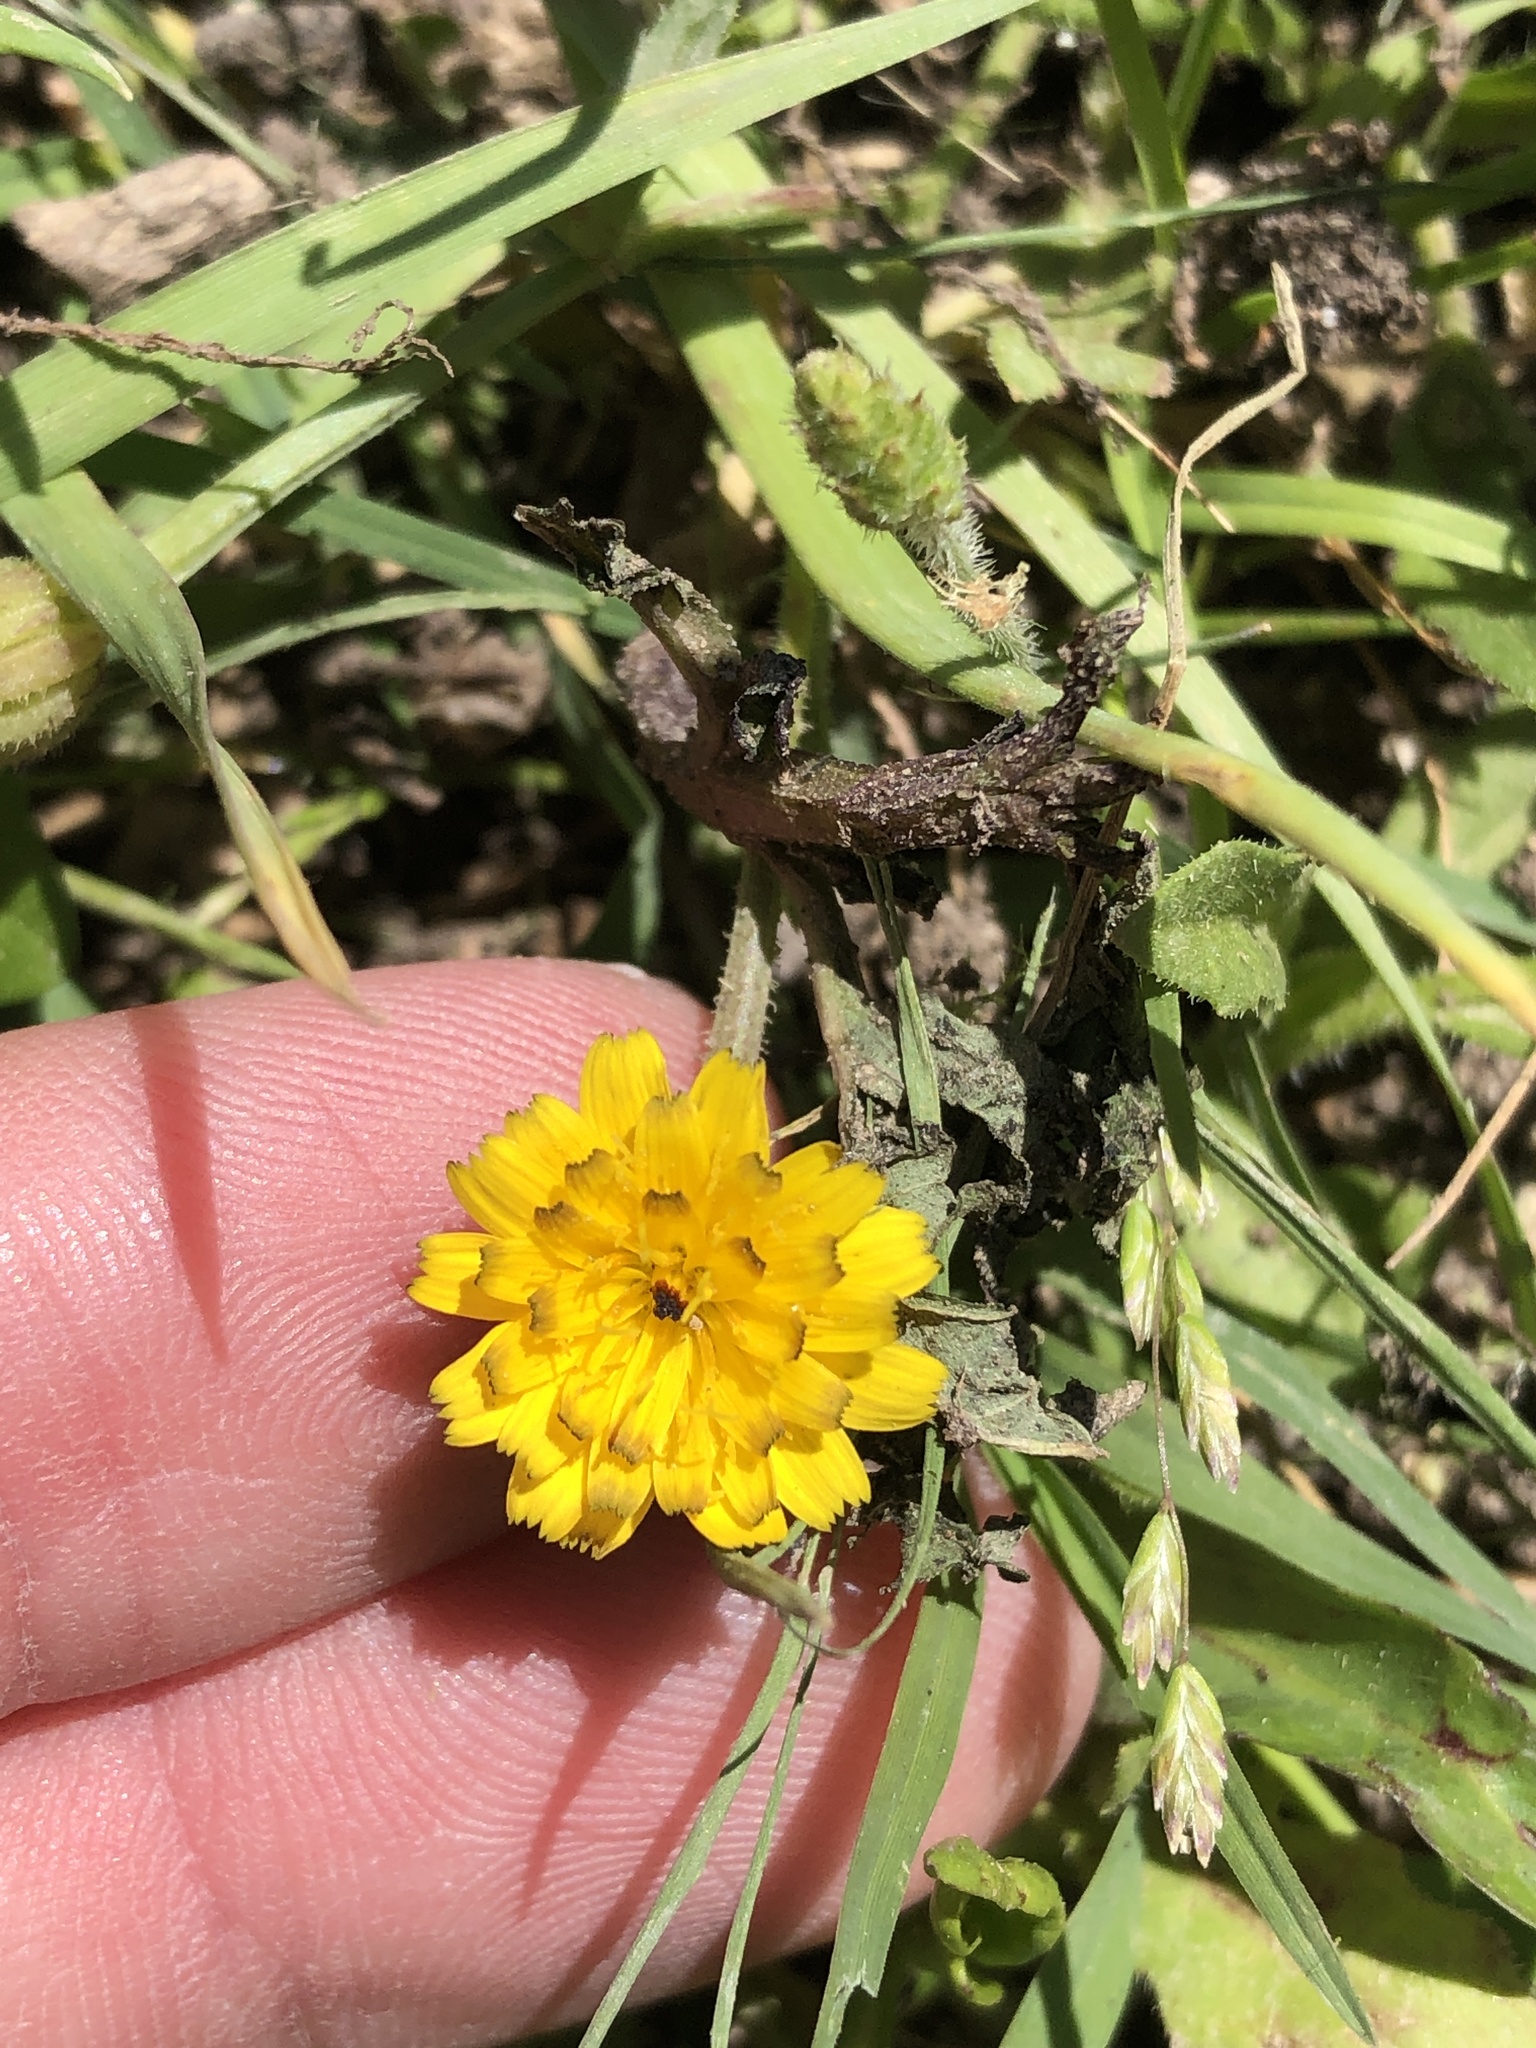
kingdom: Plantae
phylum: Tracheophyta
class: Magnoliopsida
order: Asterales
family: Asteraceae
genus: Hedypnois
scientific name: Hedypnois rhagadioloides
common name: Cretan weed
